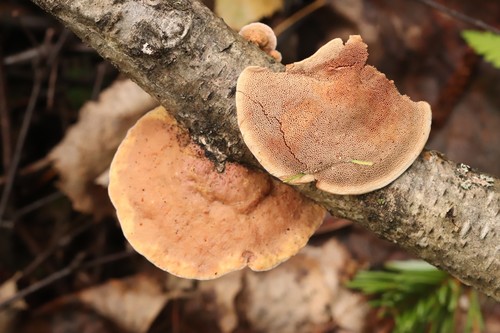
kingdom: Fungi
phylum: Basidiomycota
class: Agaricomycetes
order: Polyporales
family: Phanerochaetaceae
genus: Hapalopilus
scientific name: Hapalopilus rutilans
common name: Tender nesting polypore
